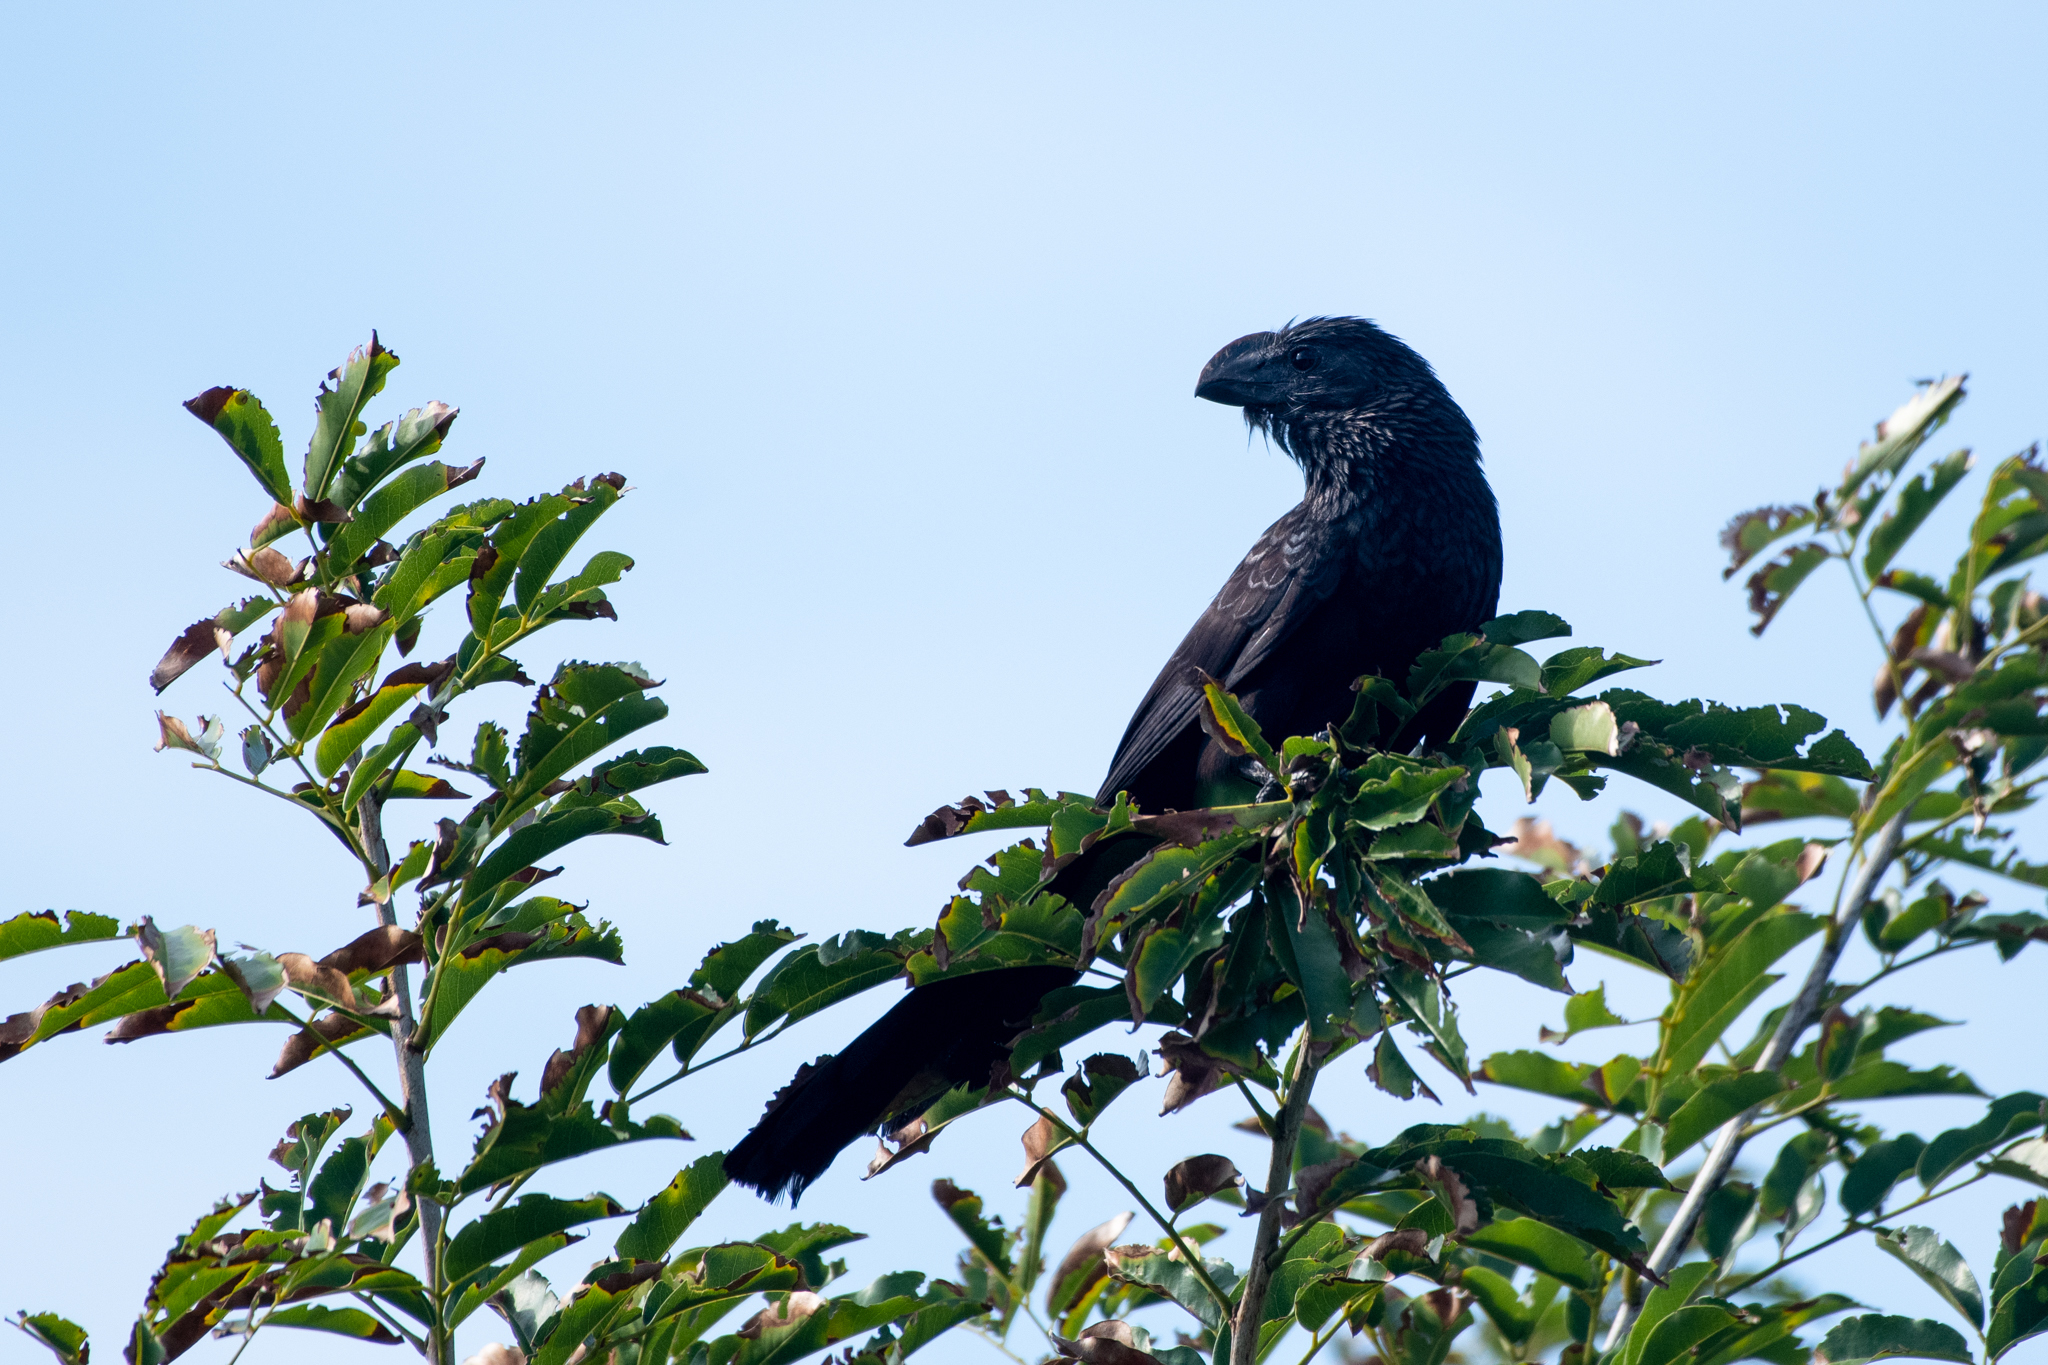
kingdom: Animalia
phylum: Chordata
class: Aves
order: Cuculiformes
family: Cuculidae
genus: Crotophaga
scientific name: Crotophaga ani
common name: Smooth-billed ani
